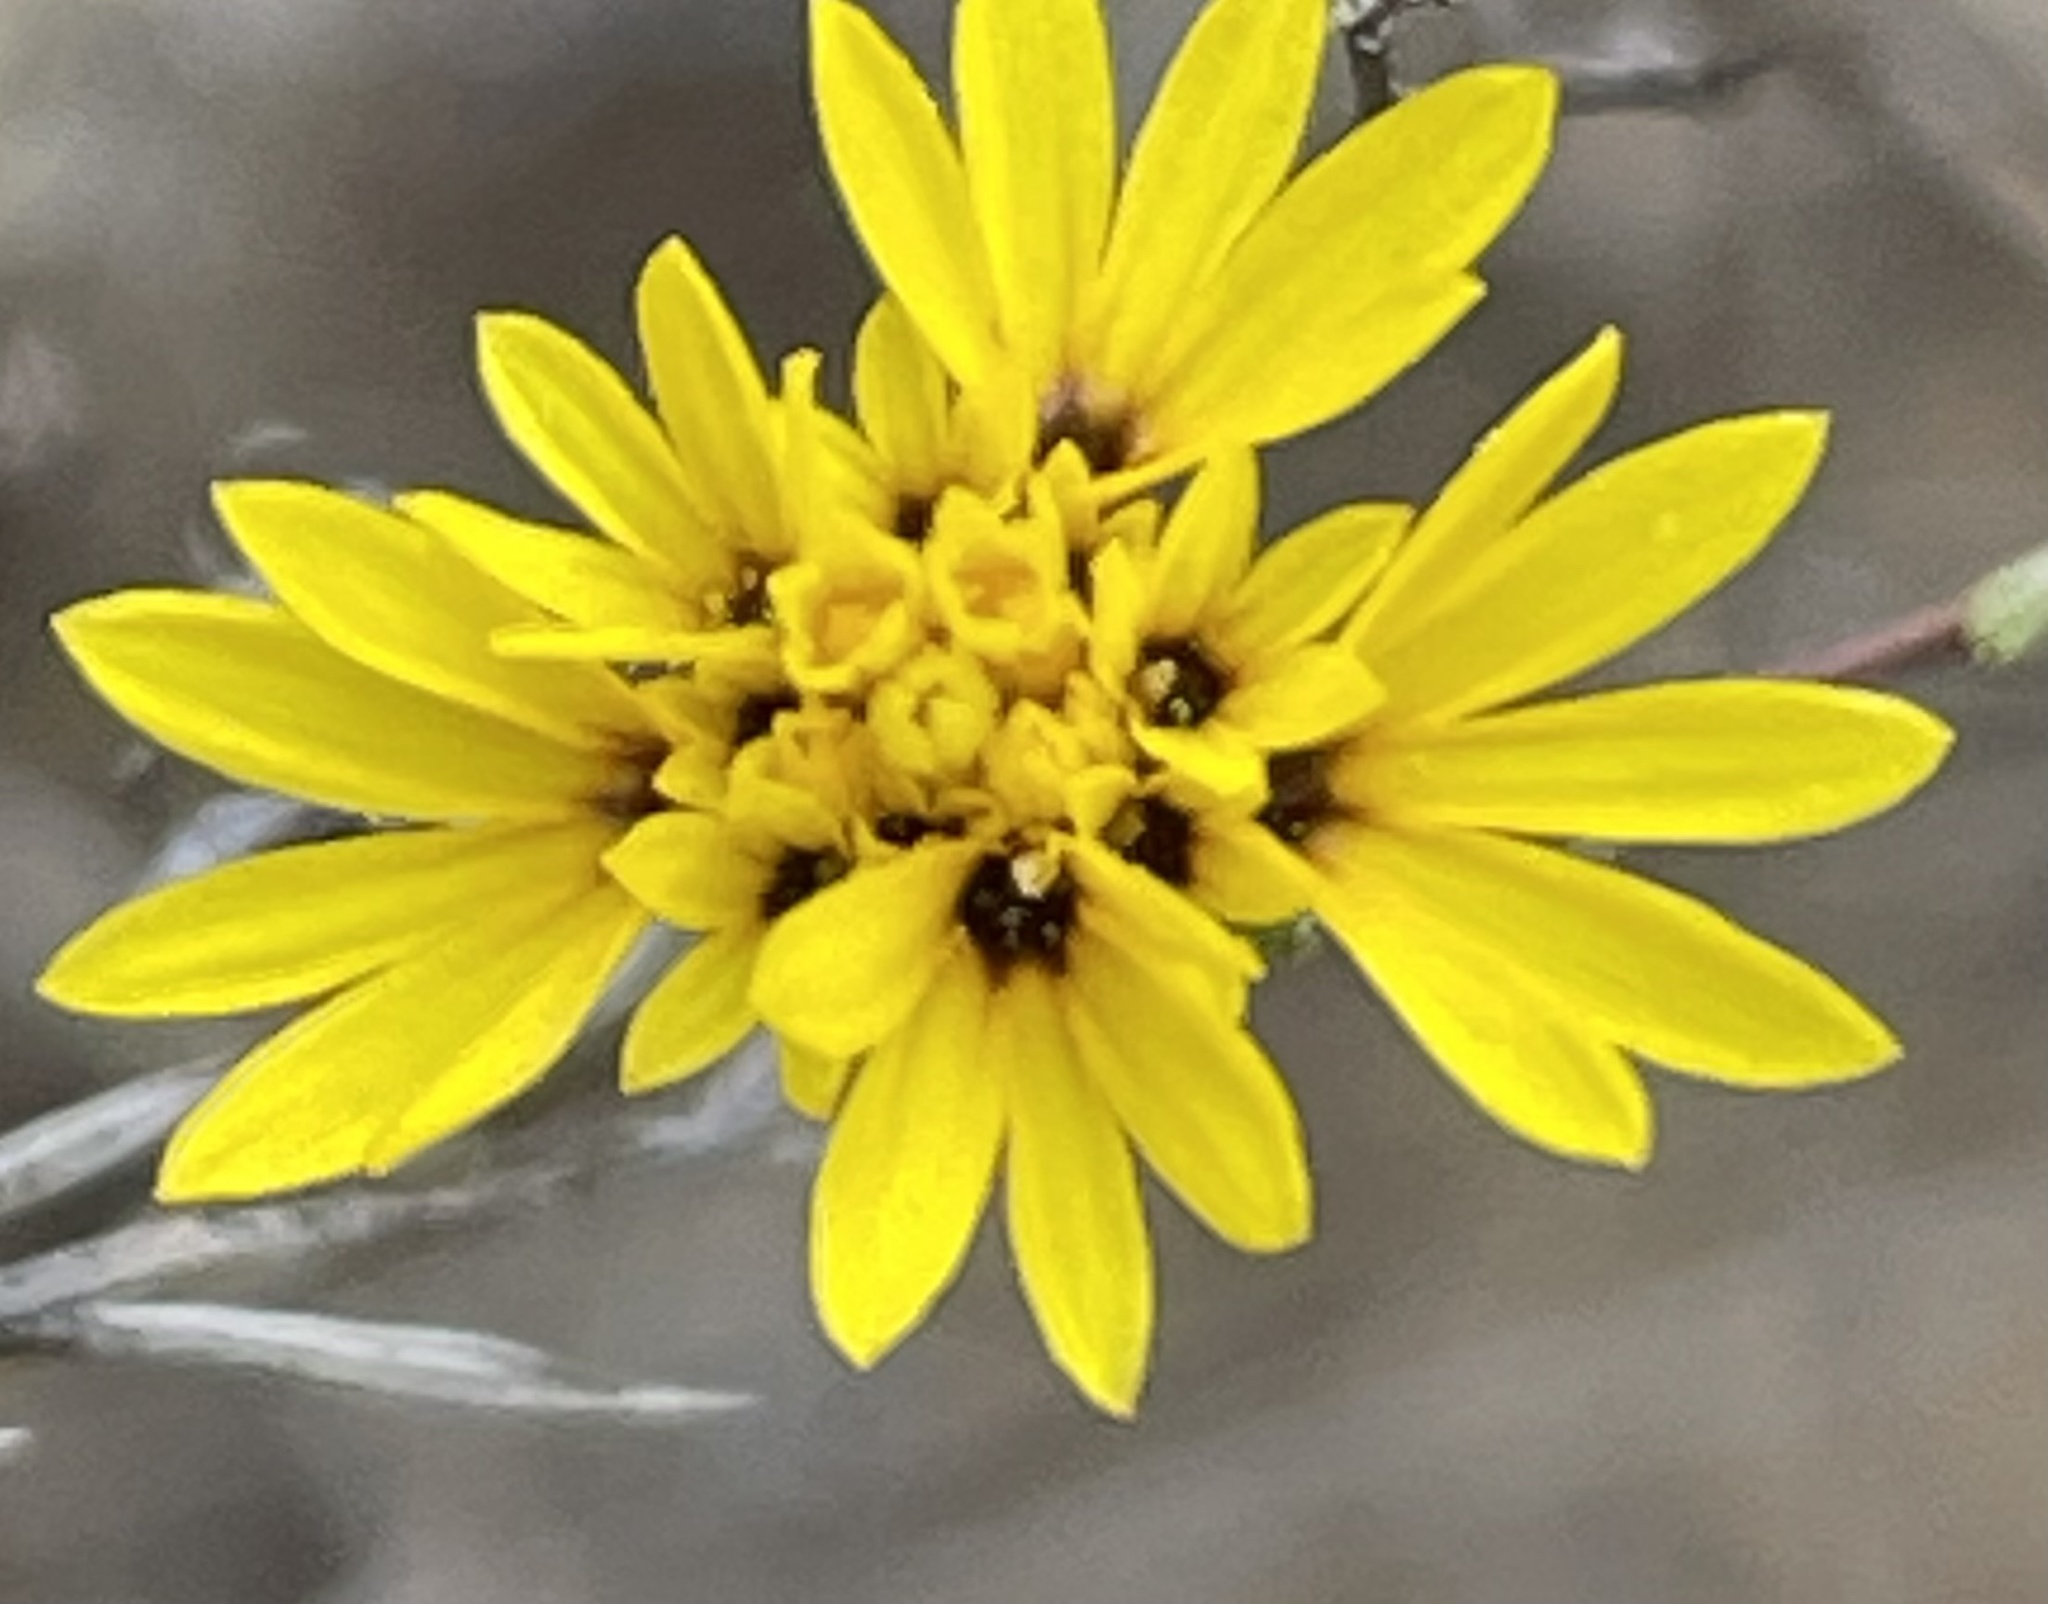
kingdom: Plantae
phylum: Tracheophyta
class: Magnoliopsida
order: Asterales
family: Asteraceae
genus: Lessingia
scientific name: Lessingia pectinata
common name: Valley lessingia
